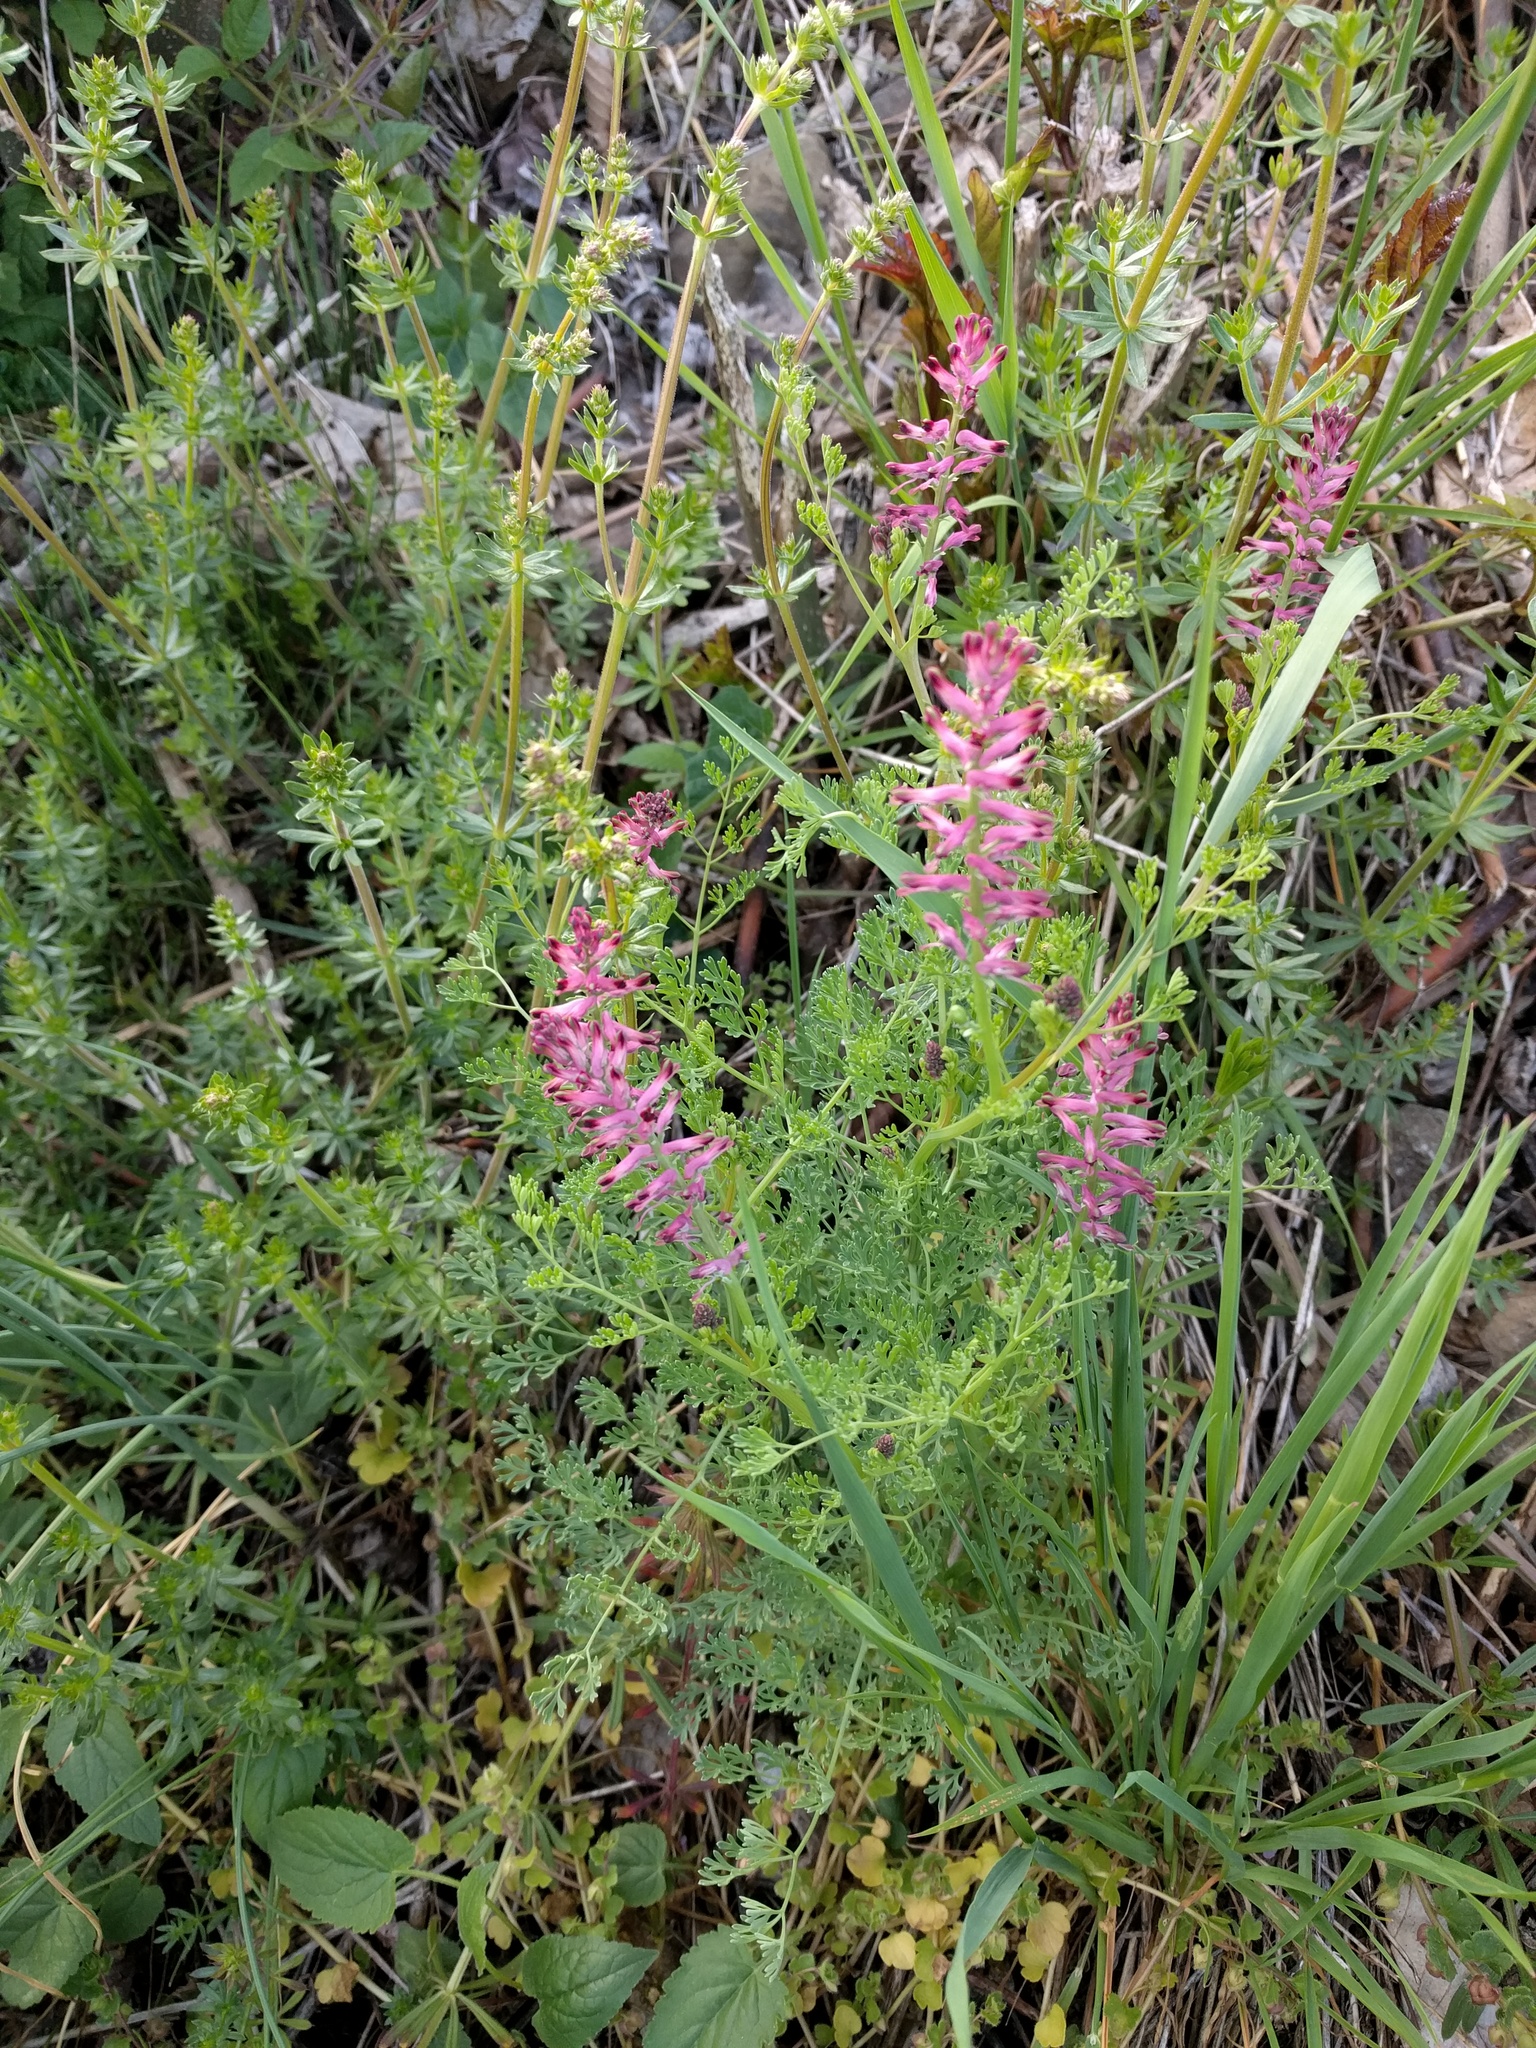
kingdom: Plantae
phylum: Tracheophyta
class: Magnoliopsida
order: Ranunculales
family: Papaveraceae
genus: Fumaria
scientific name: Fumaria officinalis
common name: Common fumitory
